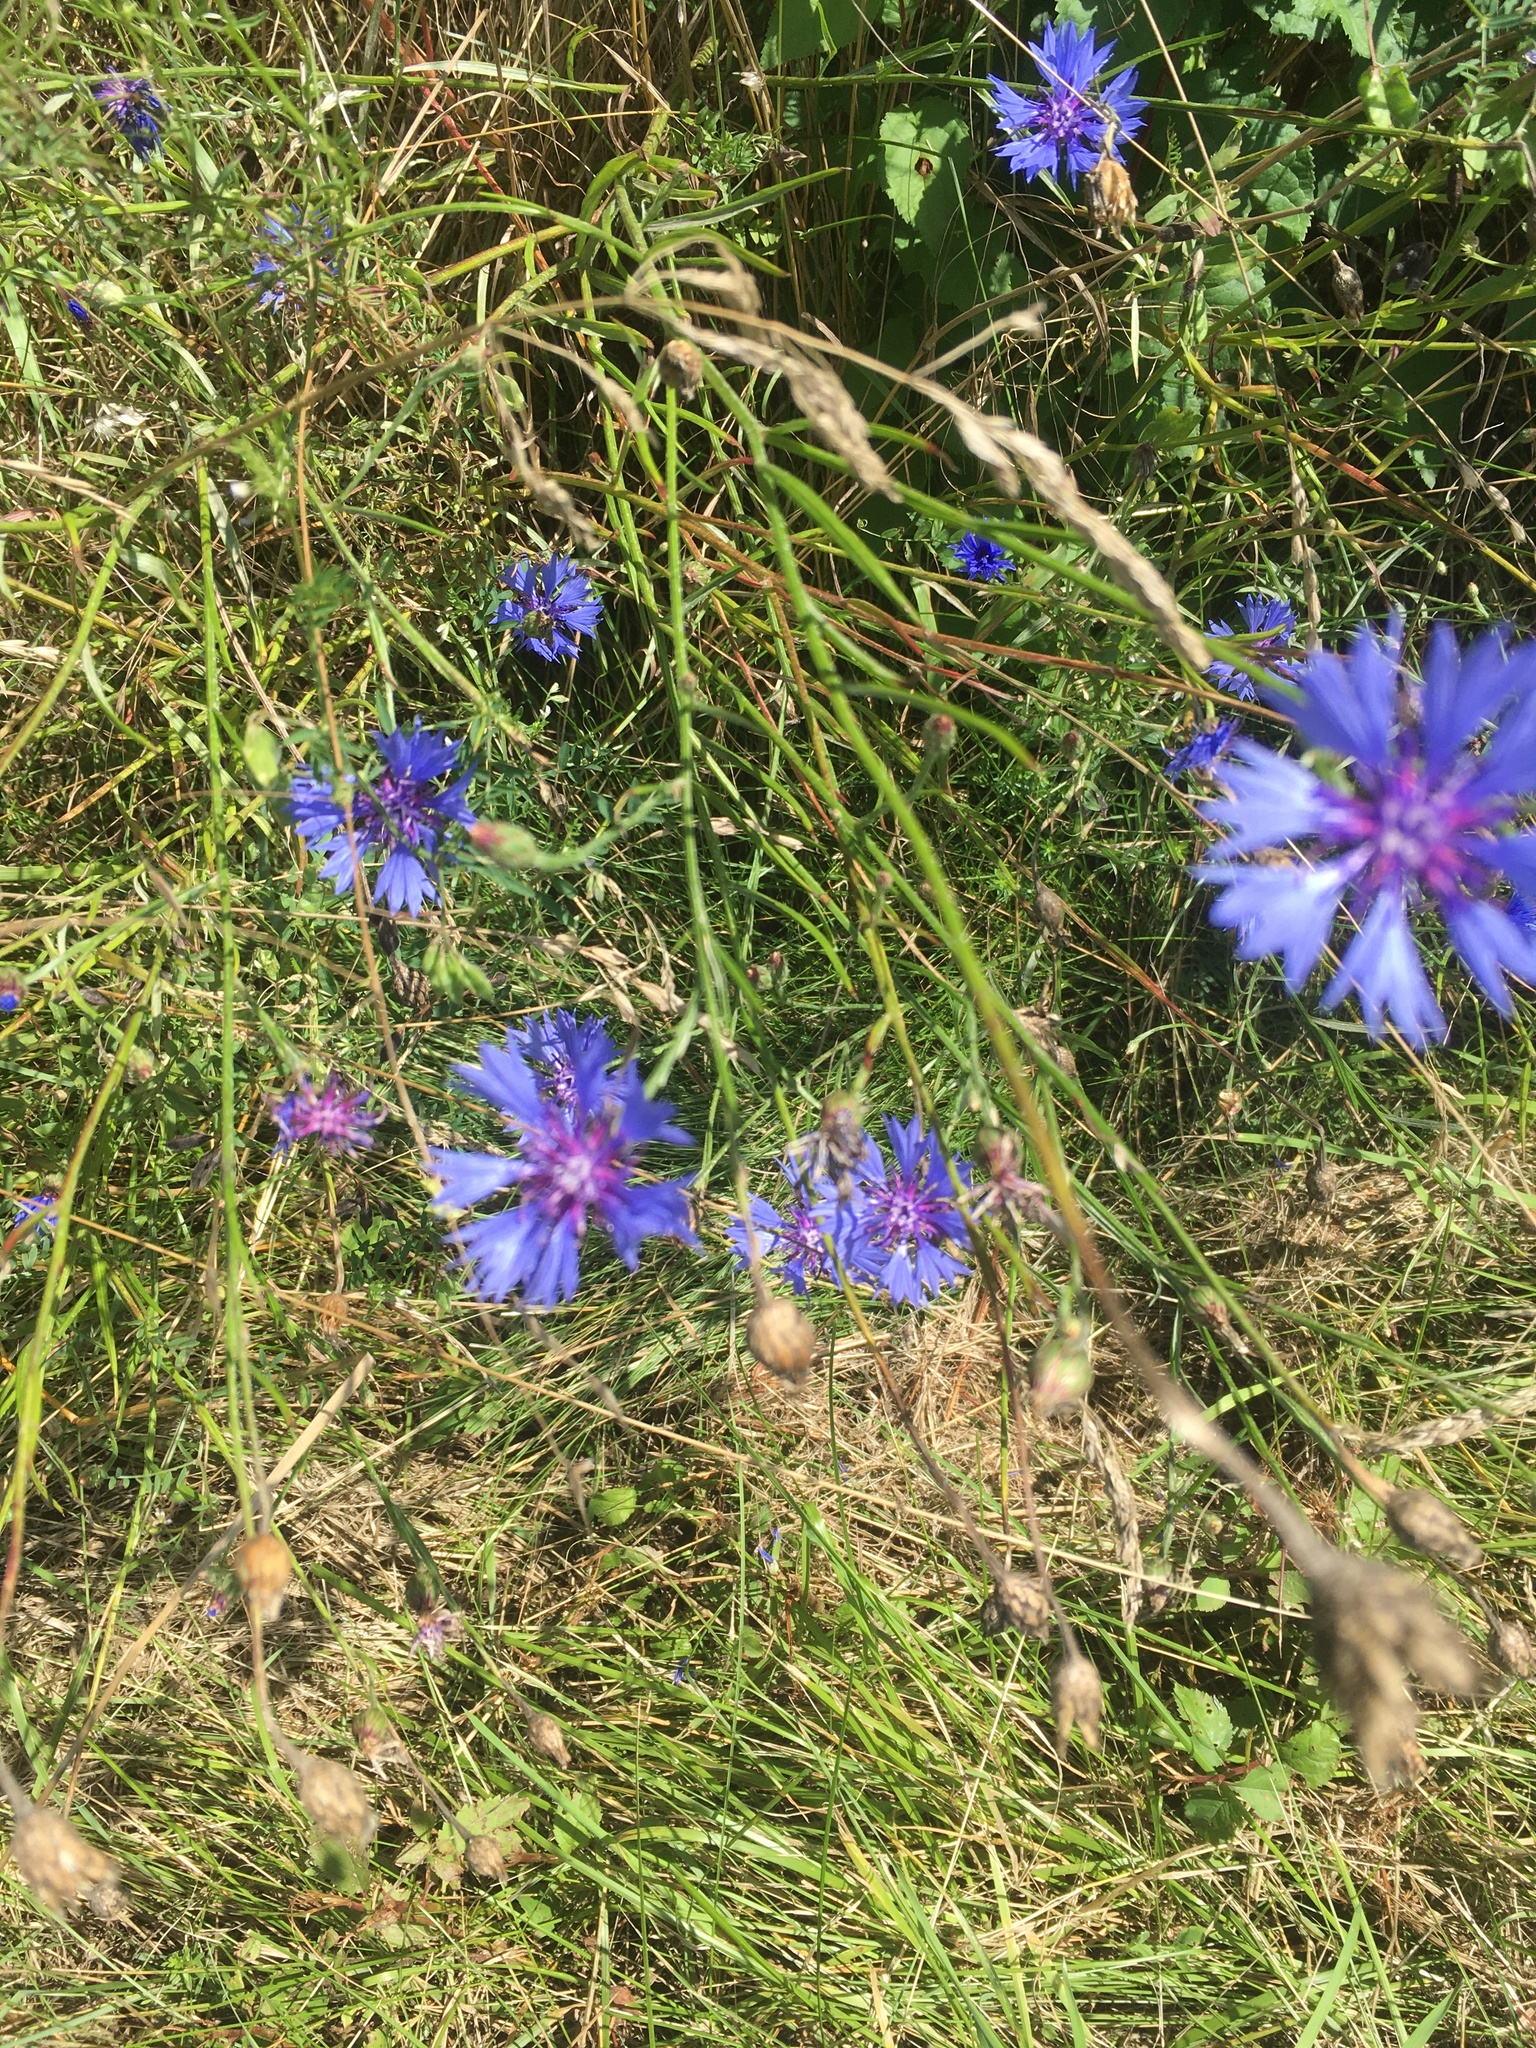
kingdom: Plantae
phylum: Tracheophyta
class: Magnoliopsida
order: Asterales
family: Asteraceae
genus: Centaurea
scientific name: Centaurea cyanus
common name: Cornflower
